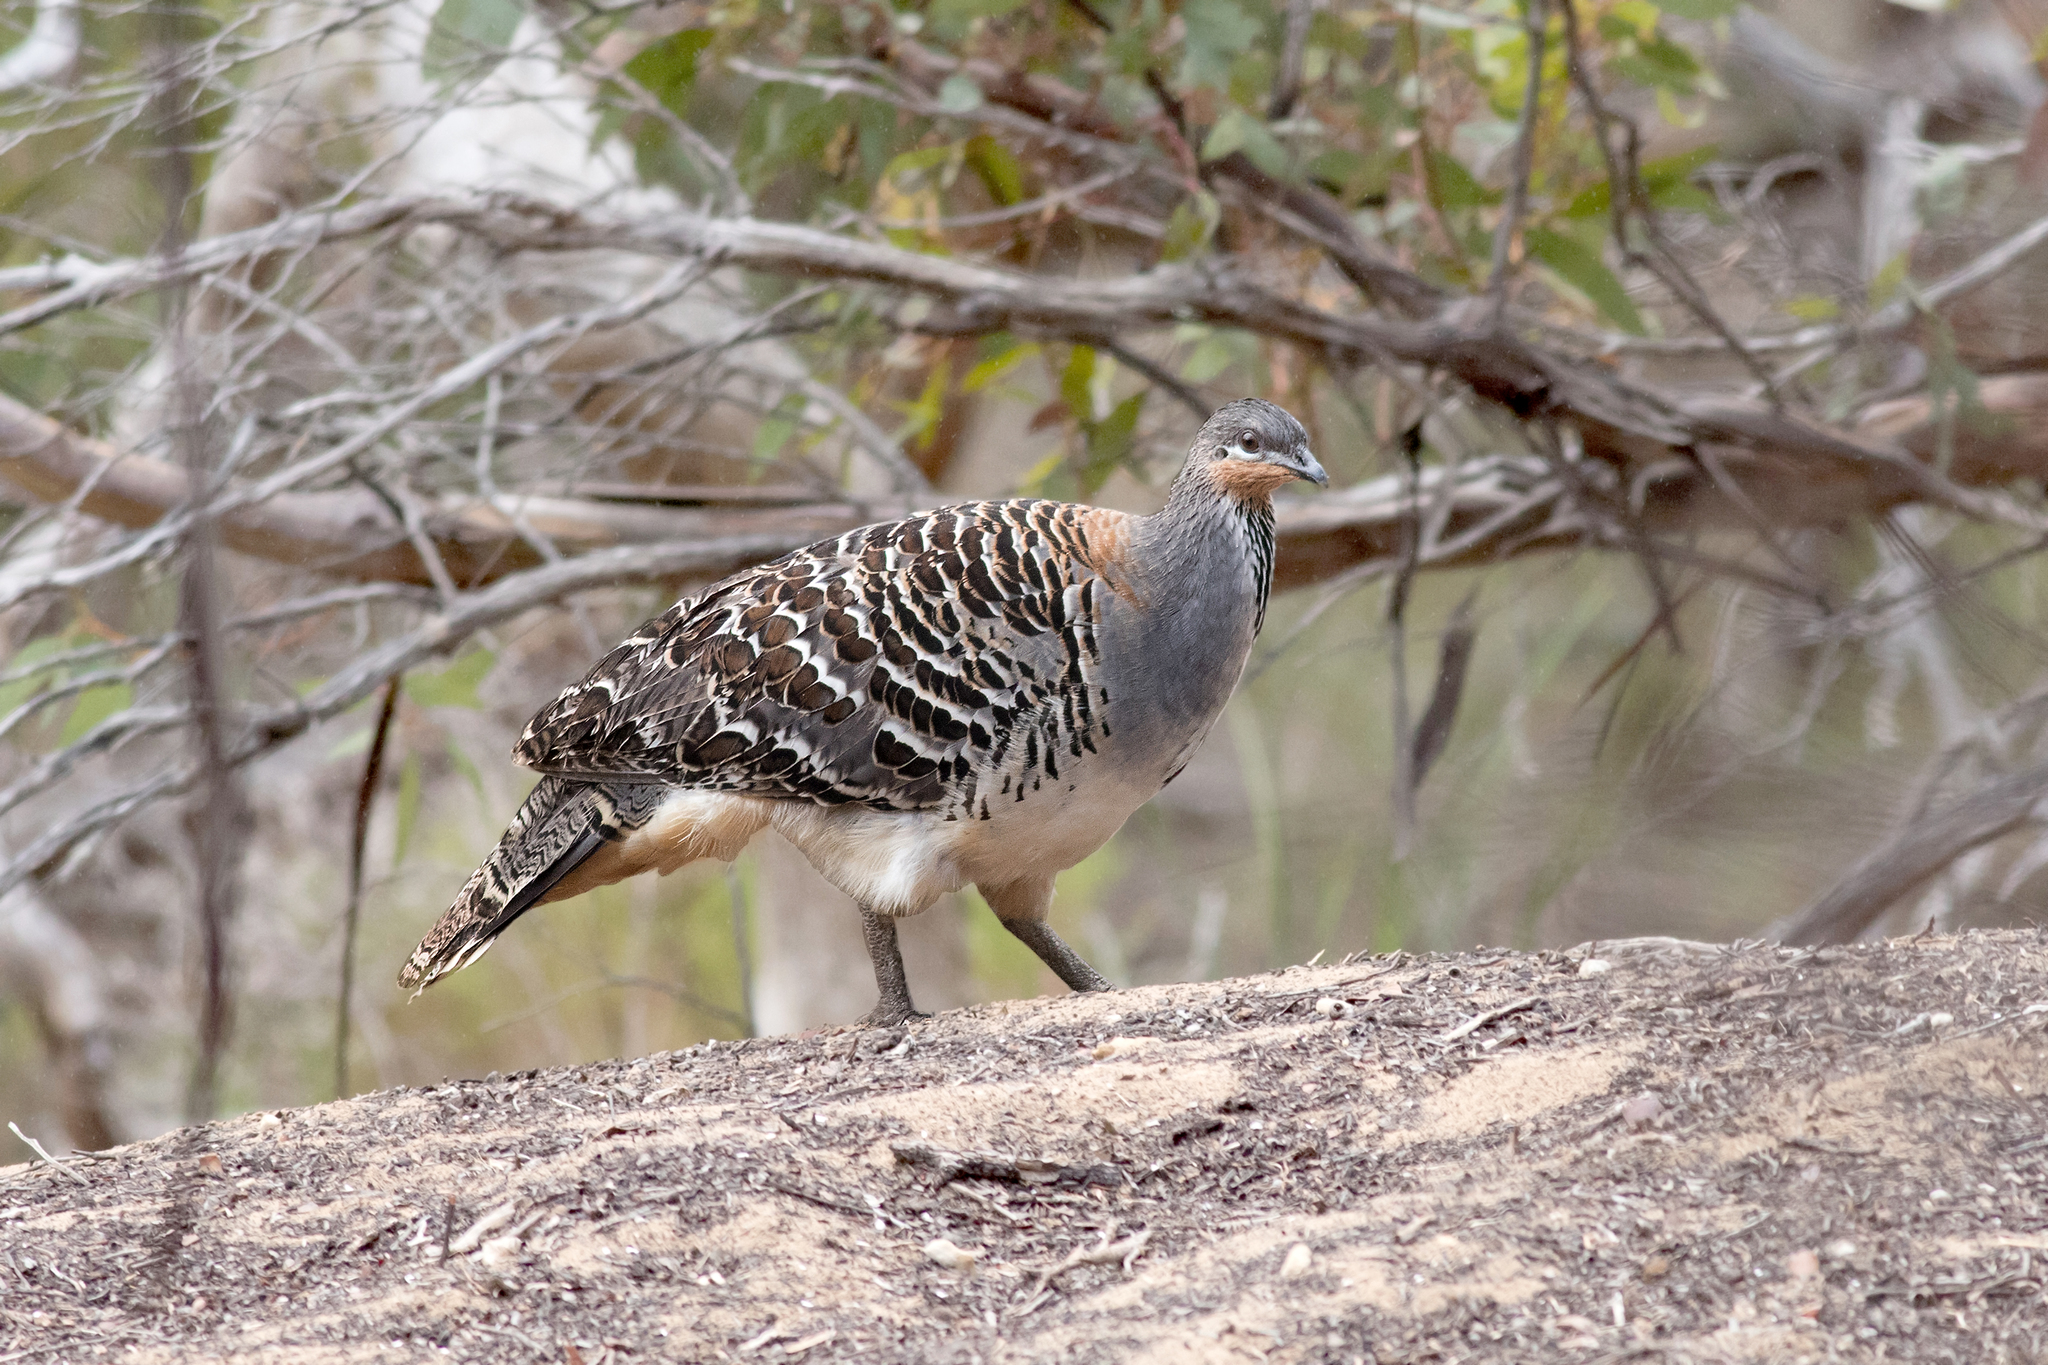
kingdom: Animalia
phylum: Chordata
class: Aves
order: Galliformes
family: Megapodiidae
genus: Leipoa
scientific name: Leipoa ocellata
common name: Malleefowl
